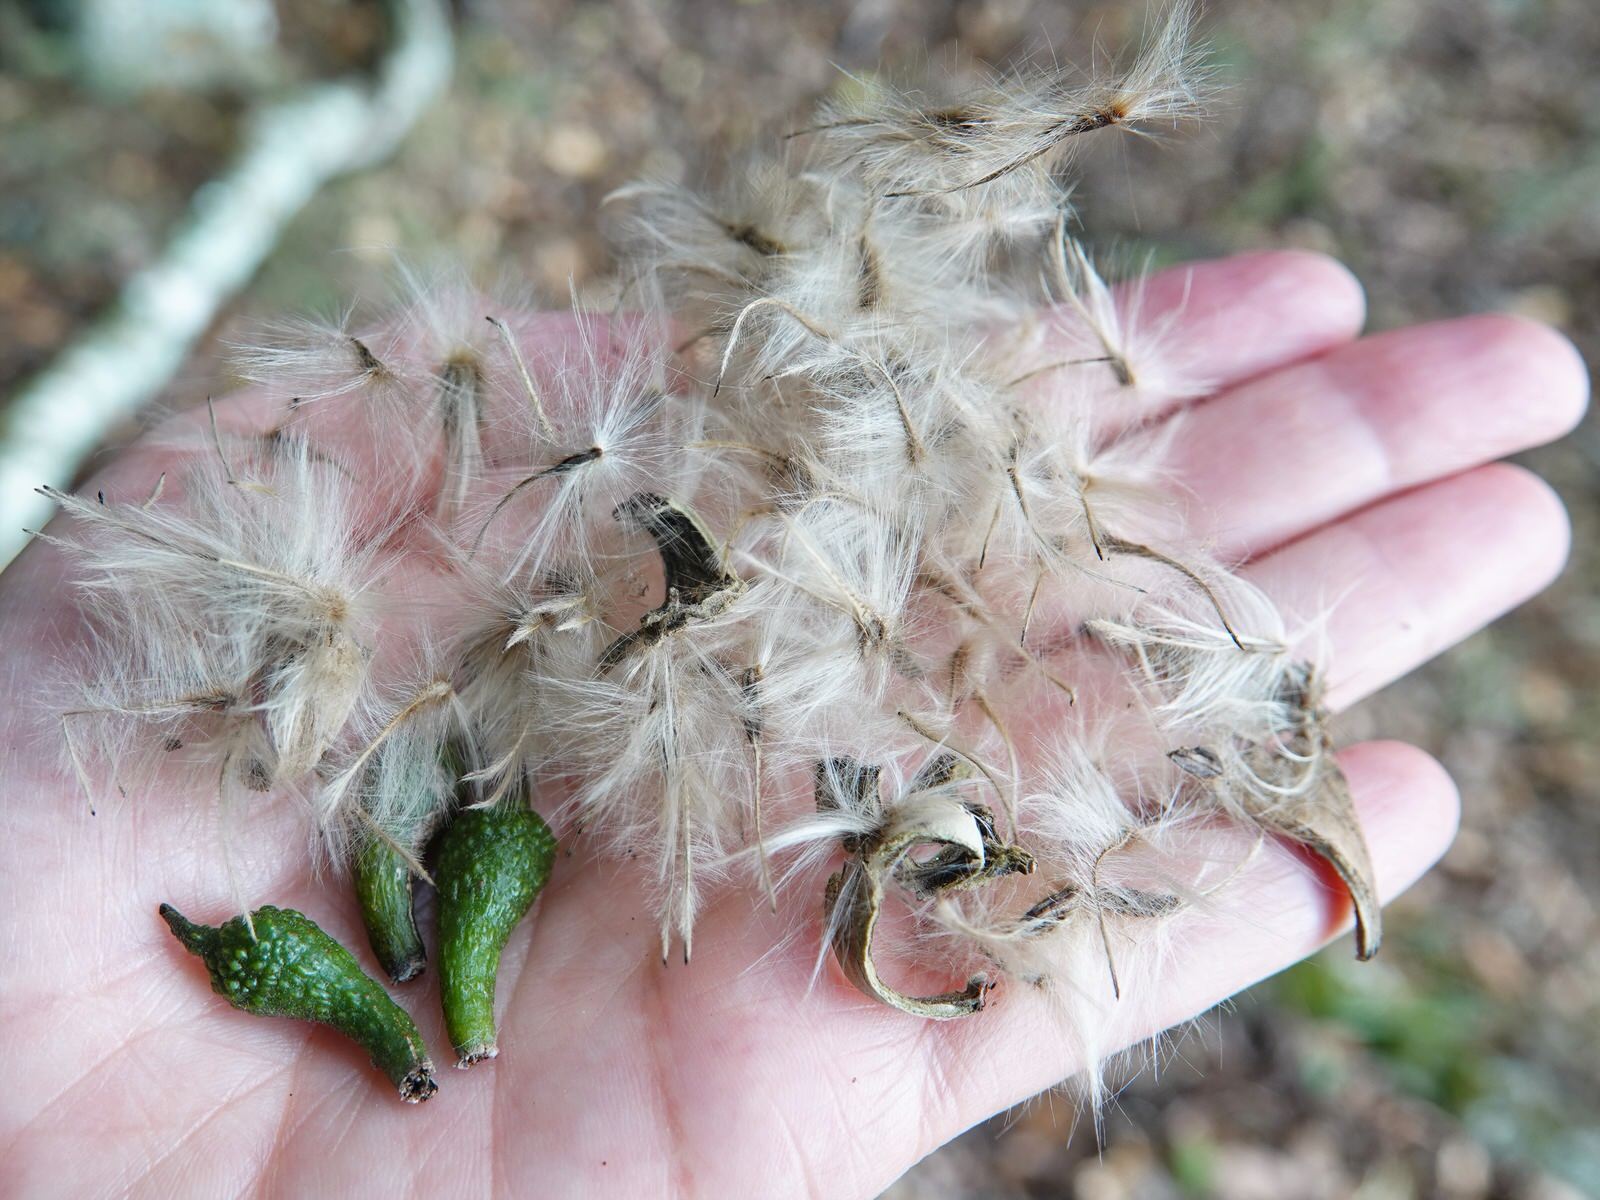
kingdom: Plantae
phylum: Tracheophyta
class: Magnoliopsida
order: Laurales
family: Atherospermataceae
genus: Laurelia
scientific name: Laurelia novae-zelandiae
